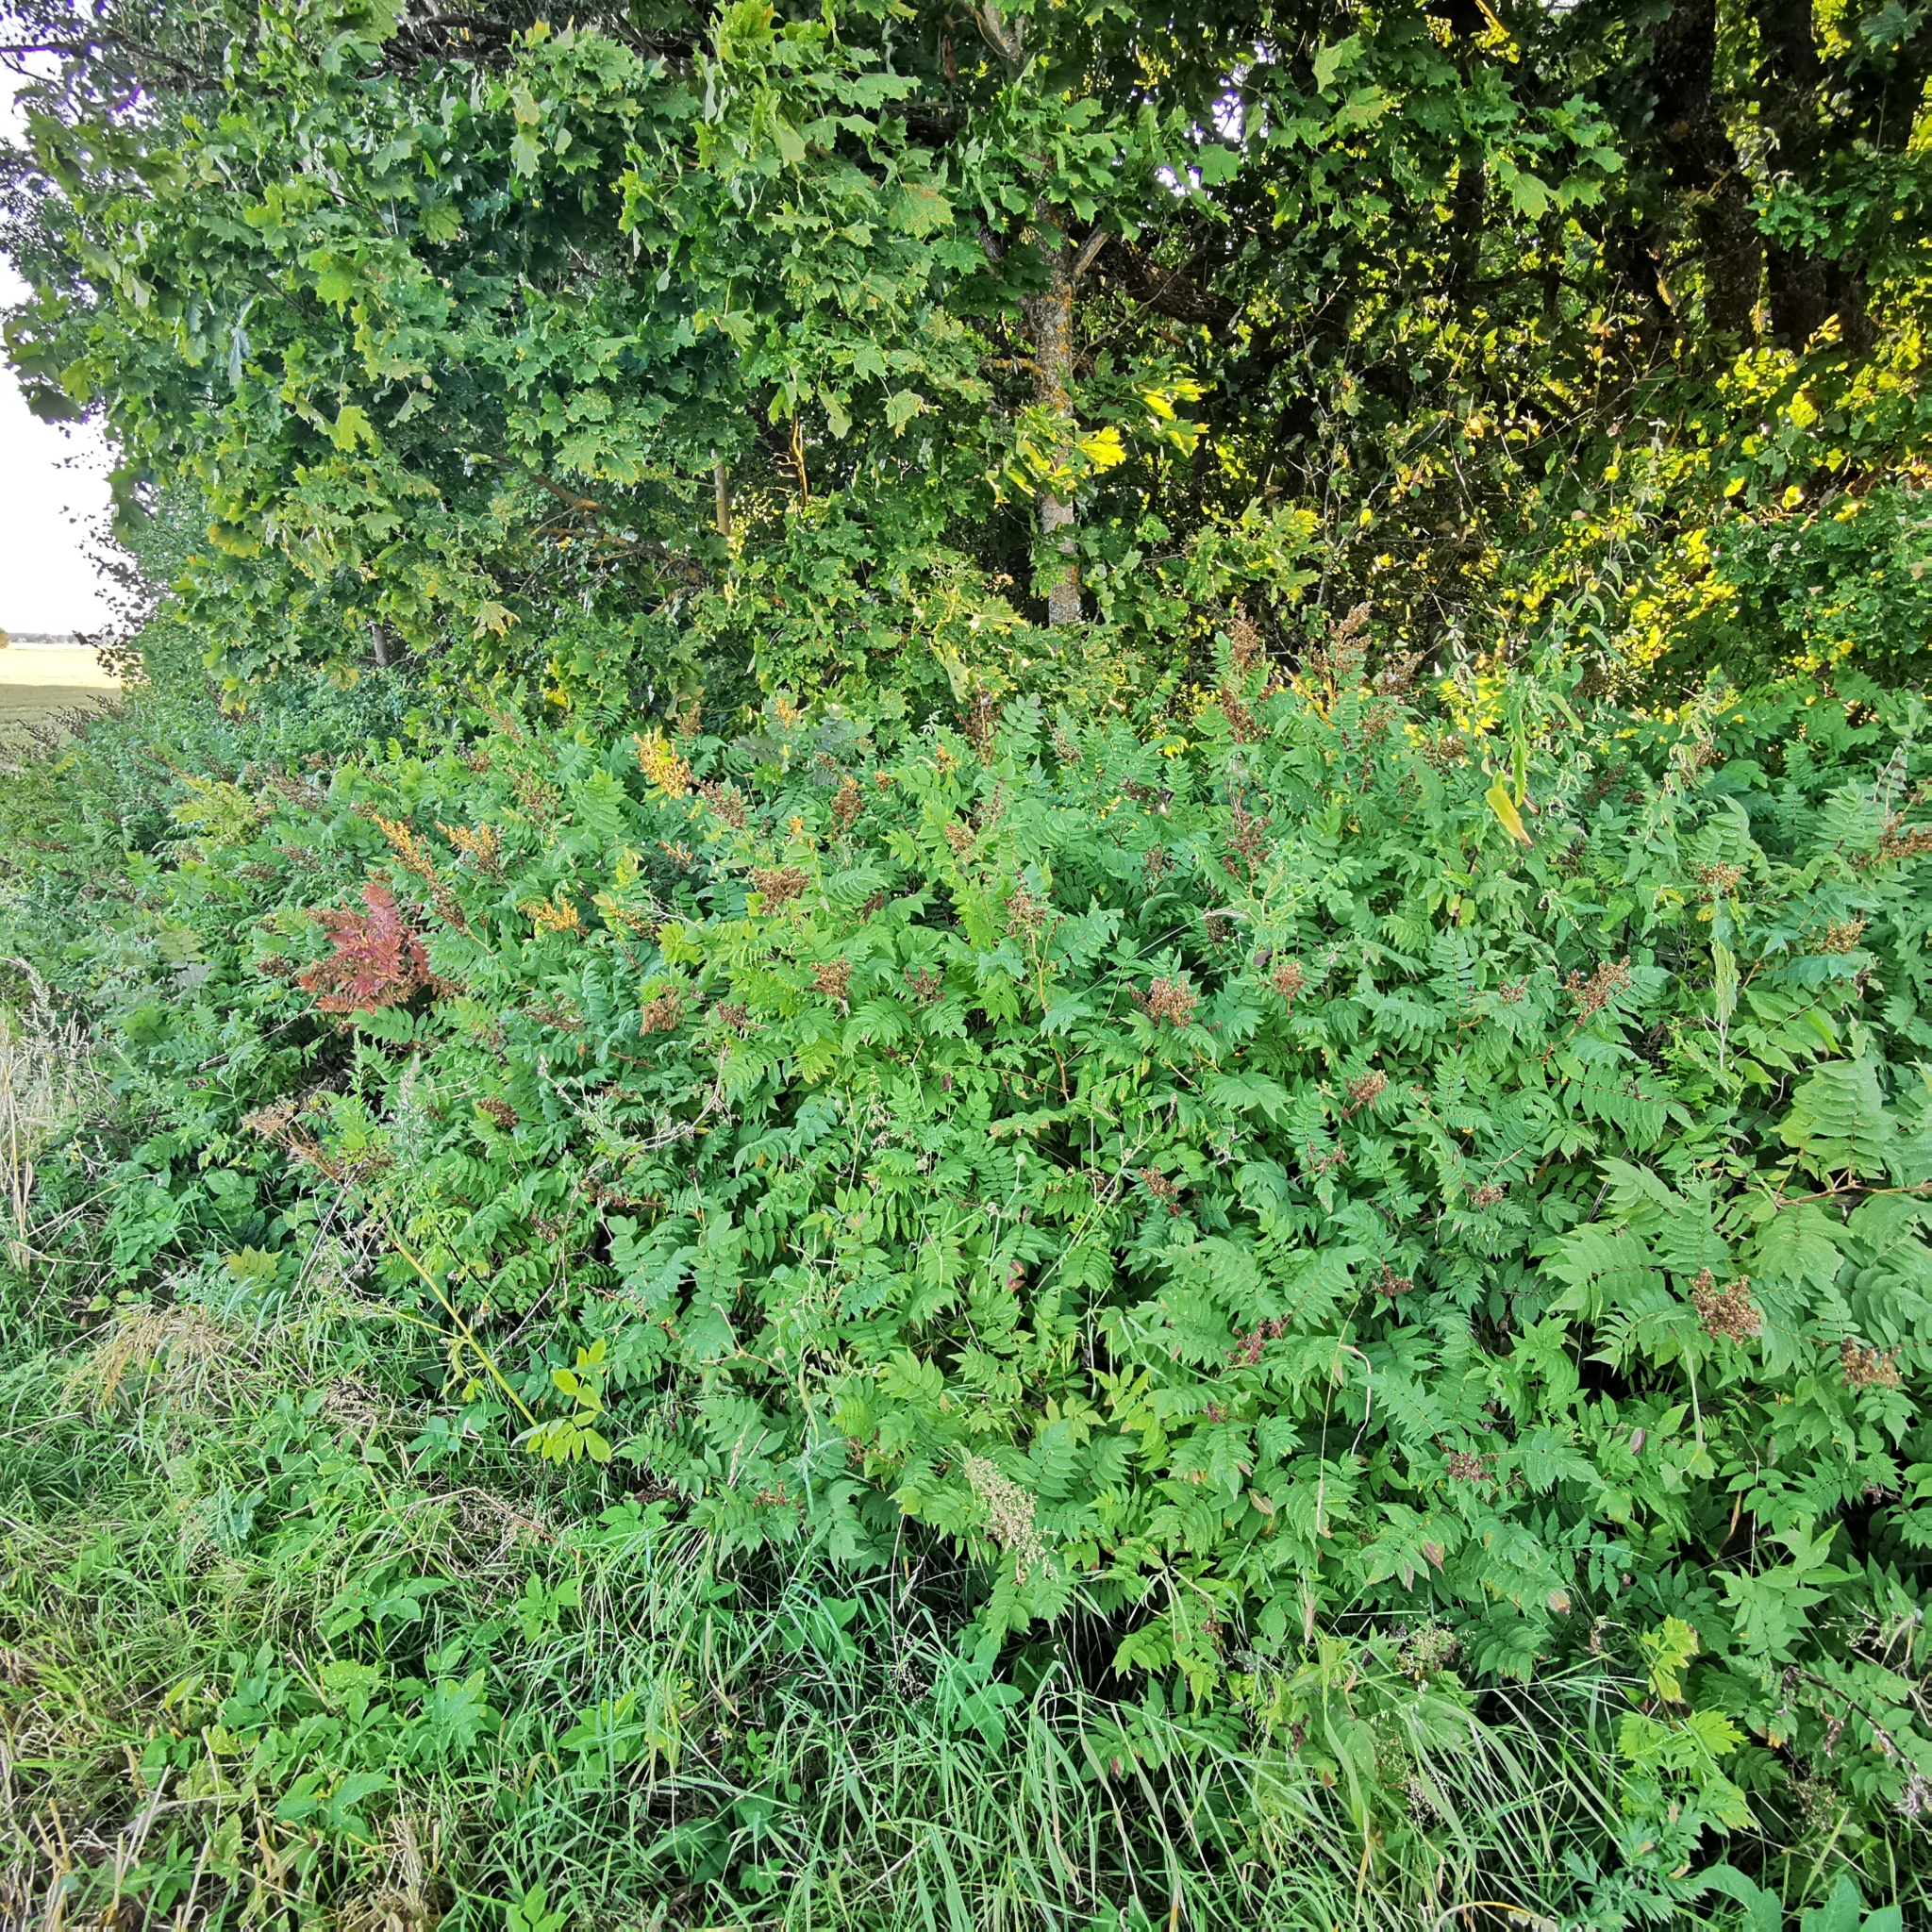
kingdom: Plantae
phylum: Tracheophyta
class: Magnoliopsida
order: Rosales
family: Rosaceae
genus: Sorbaria
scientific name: Sorbaria sorbifolia
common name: False spiraea
